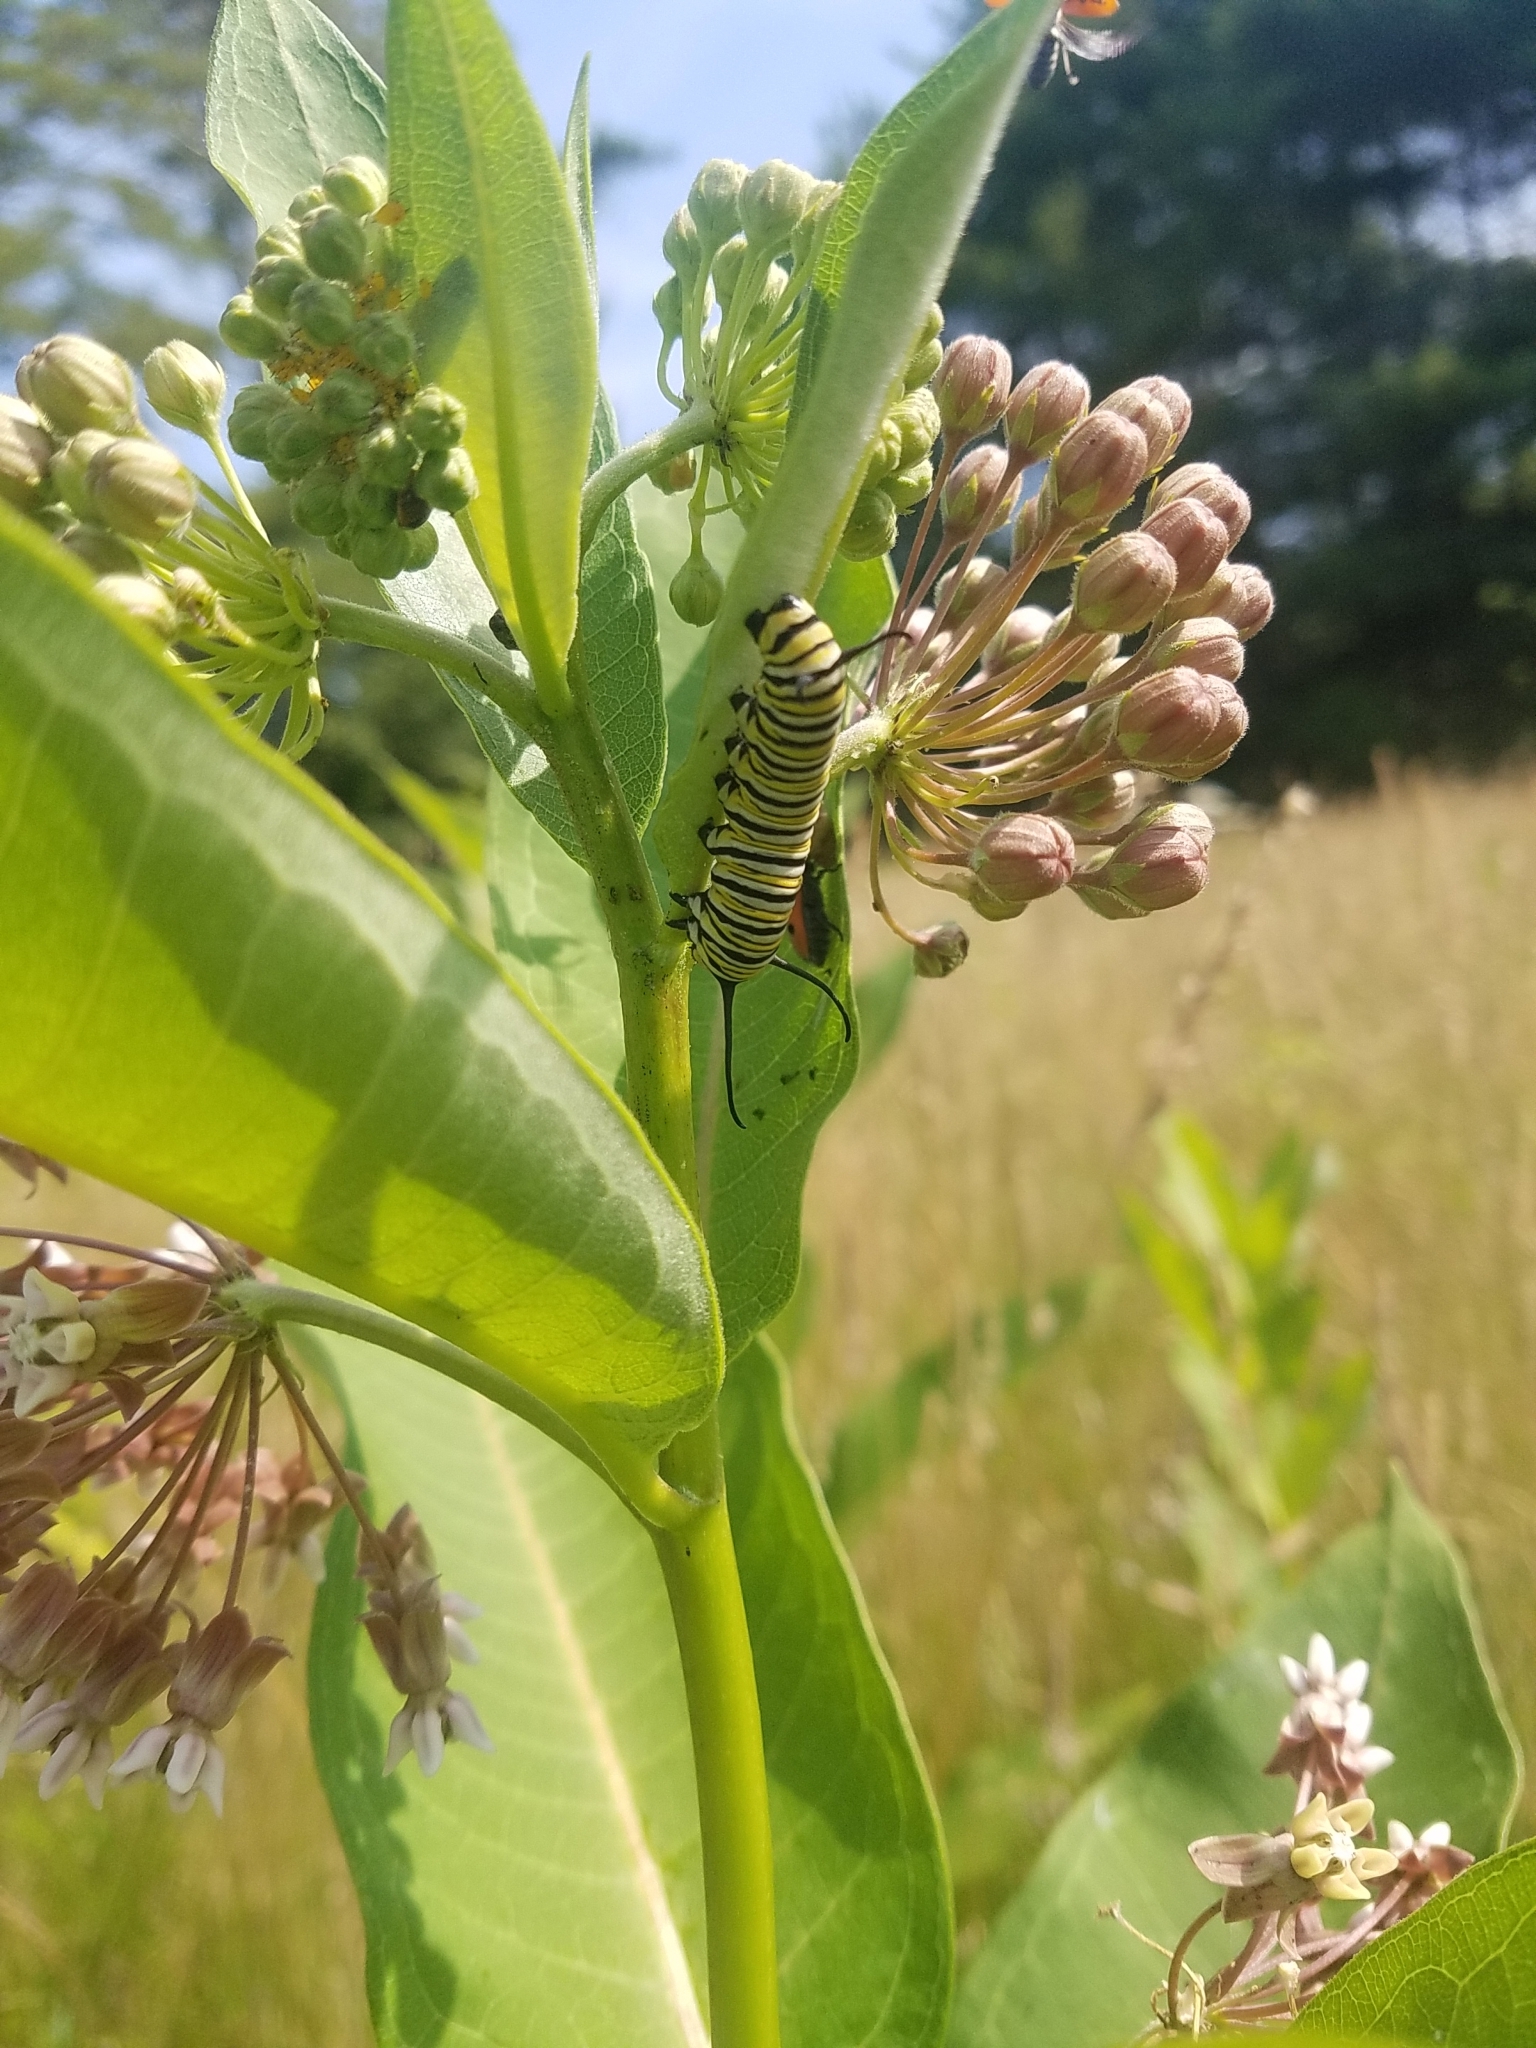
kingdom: Animalia
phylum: Arthropoda
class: Insecta
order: Lepidoptera
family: Nymphalidae
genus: Danaus
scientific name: Danaus plexippus
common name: Monarch
